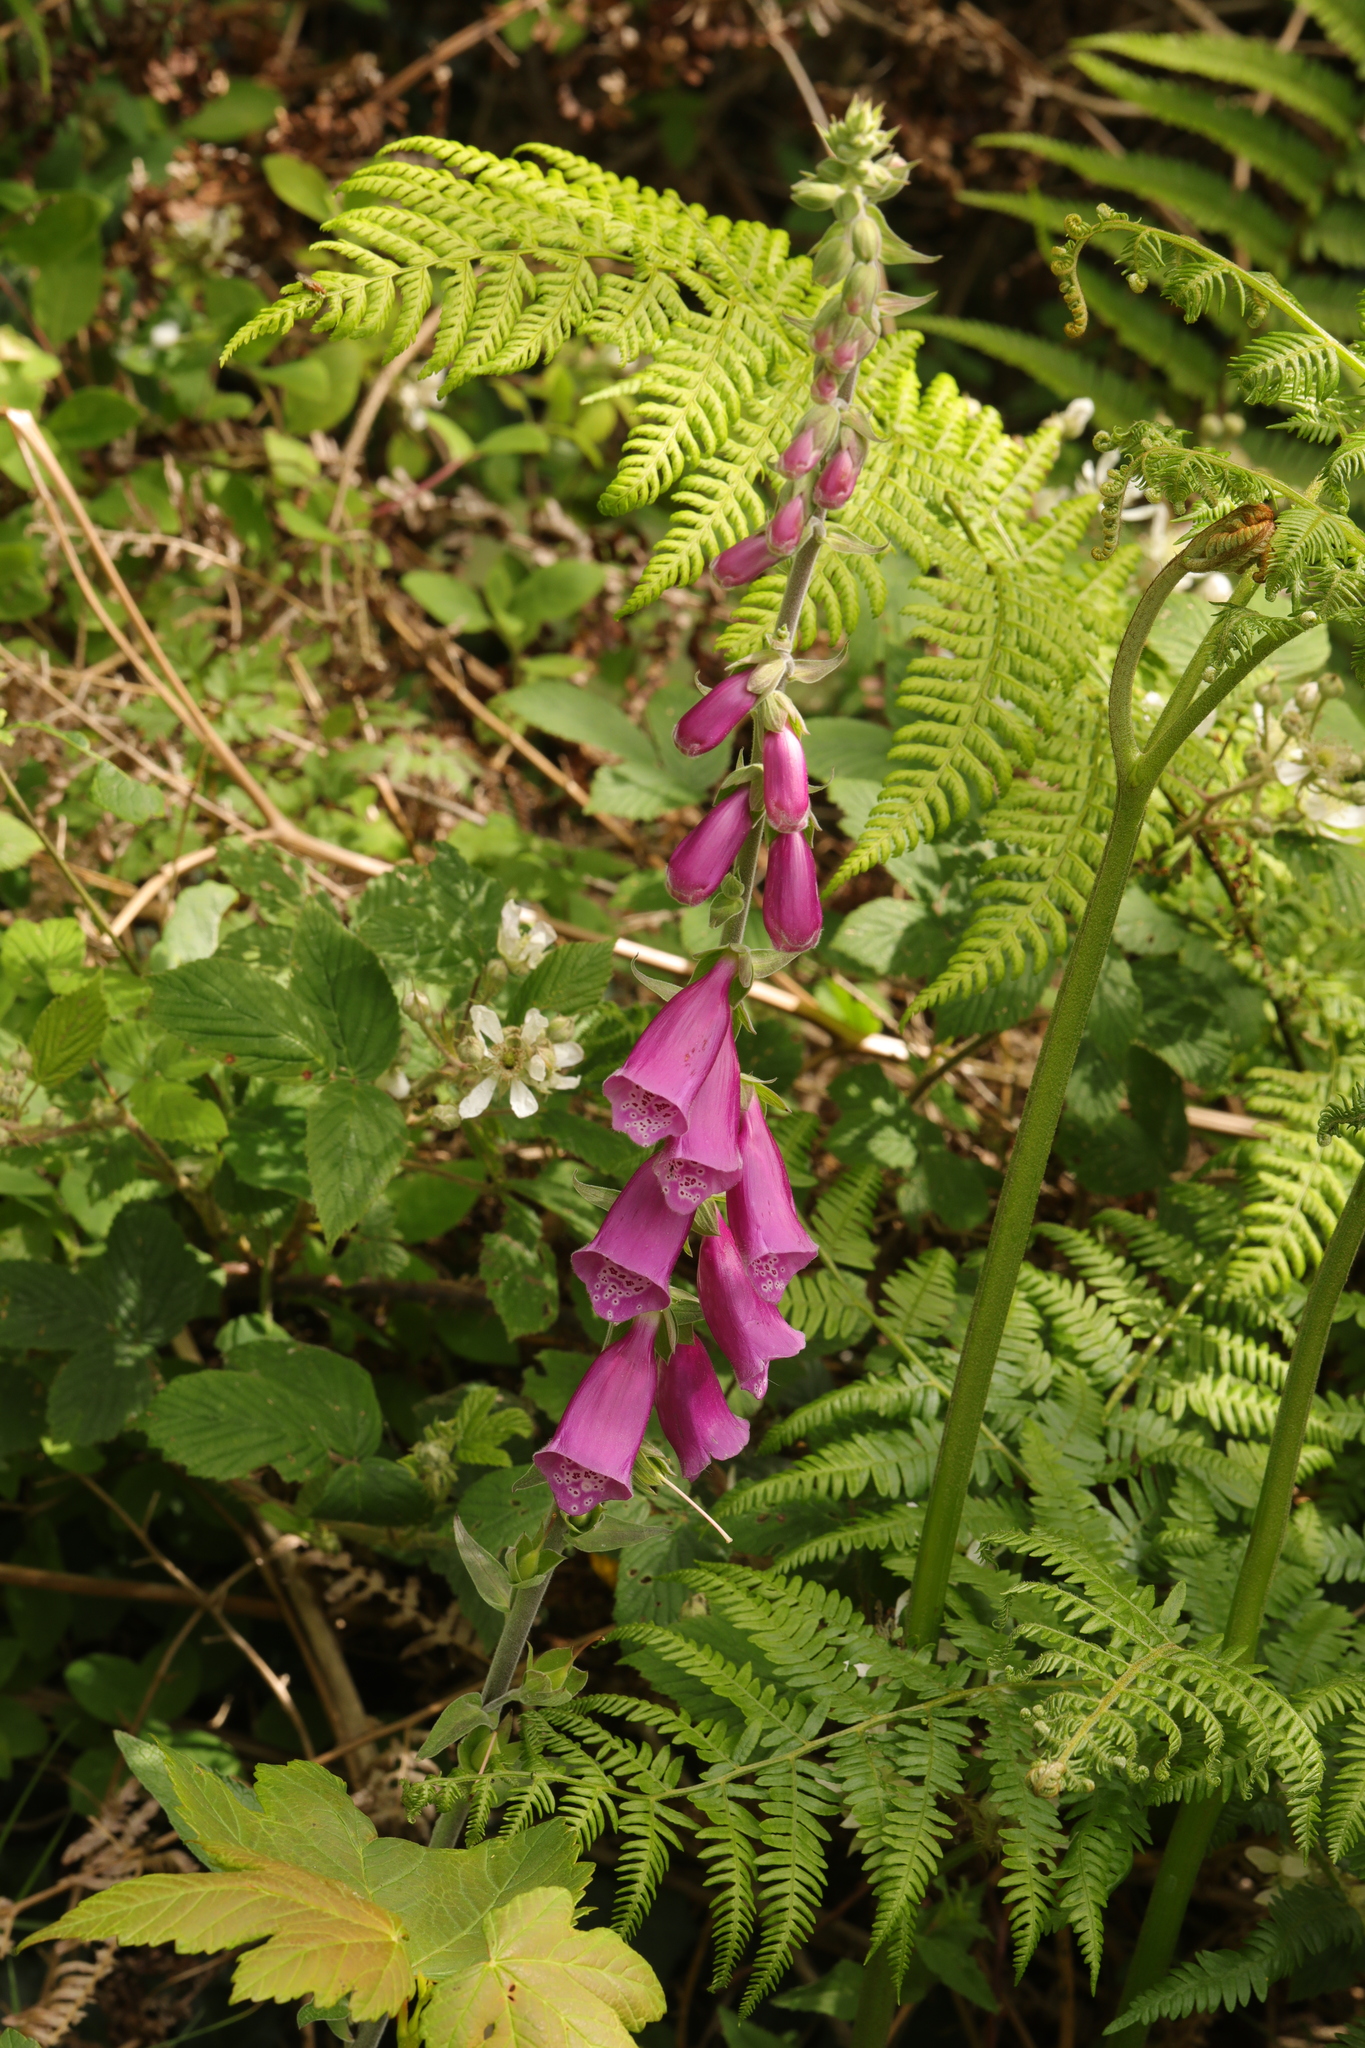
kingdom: Plantae
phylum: Tracheophyta
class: Magnoliopsida
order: Lamiales
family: Plantaginaceae
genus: Digitalis
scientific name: Digitalis purpurea
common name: Foxglove
